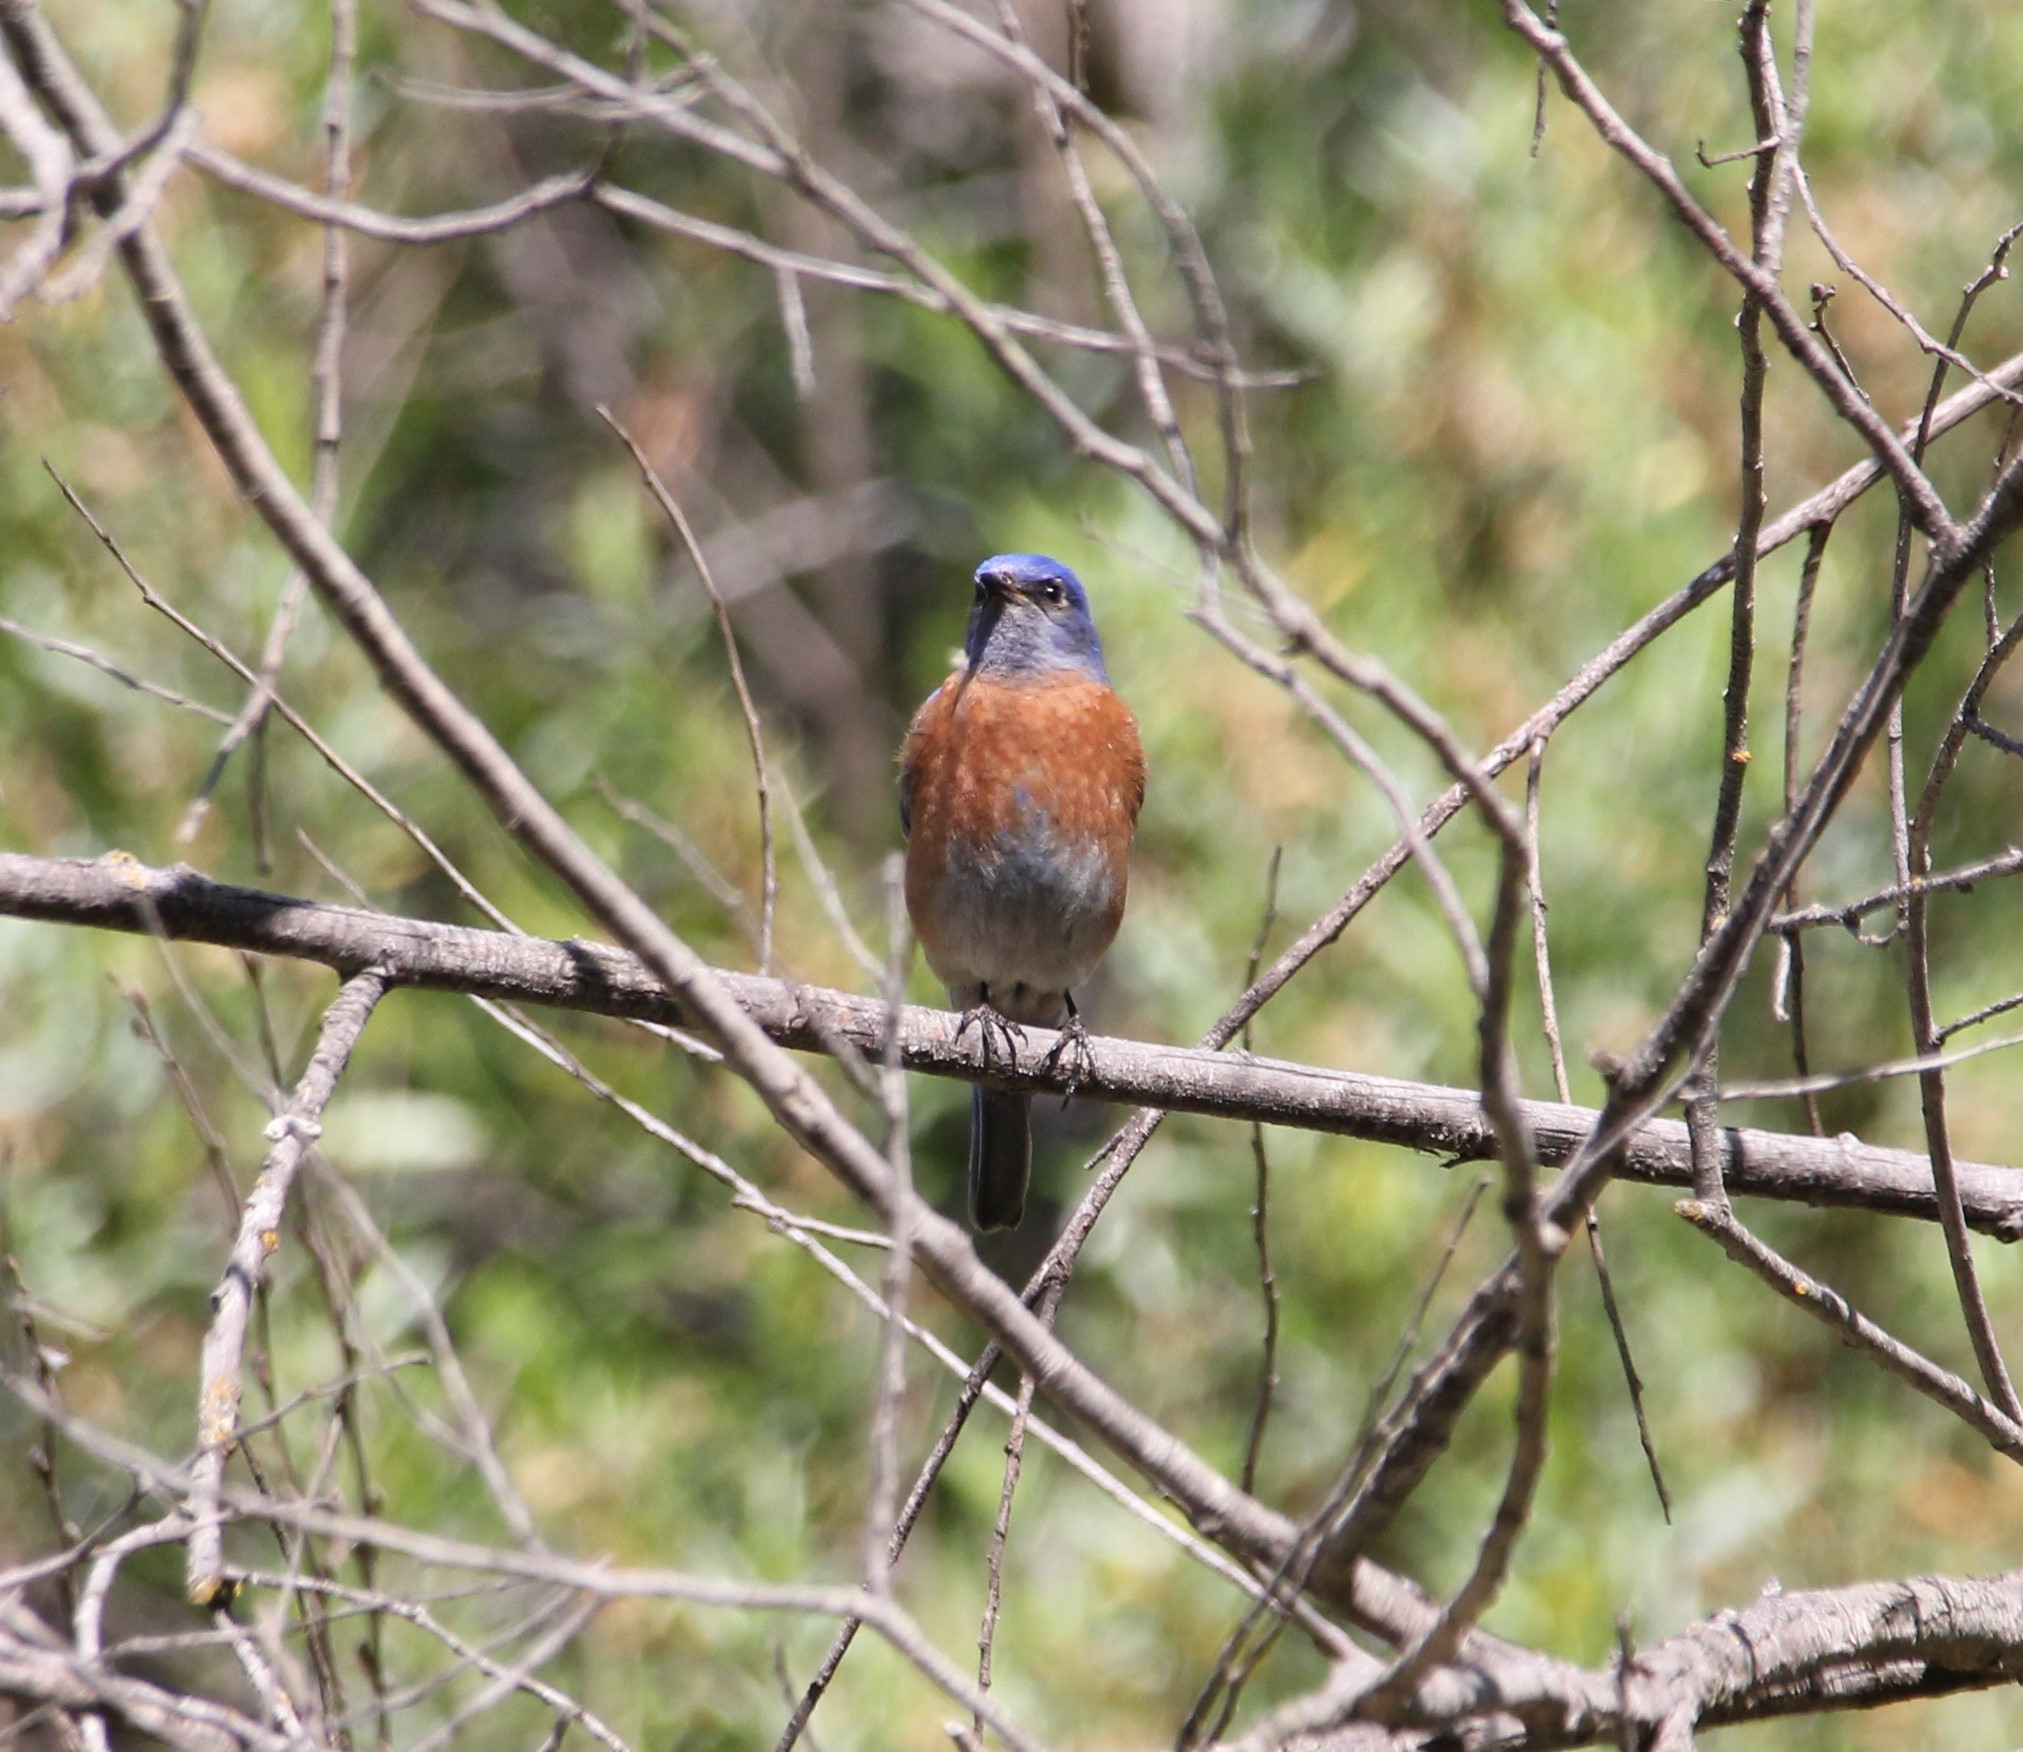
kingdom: Animalia
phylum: Chordata
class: Aves
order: Passeriformes
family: Turdidae
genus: Sialia
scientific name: Sialia mexicana
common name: Western bluebird
